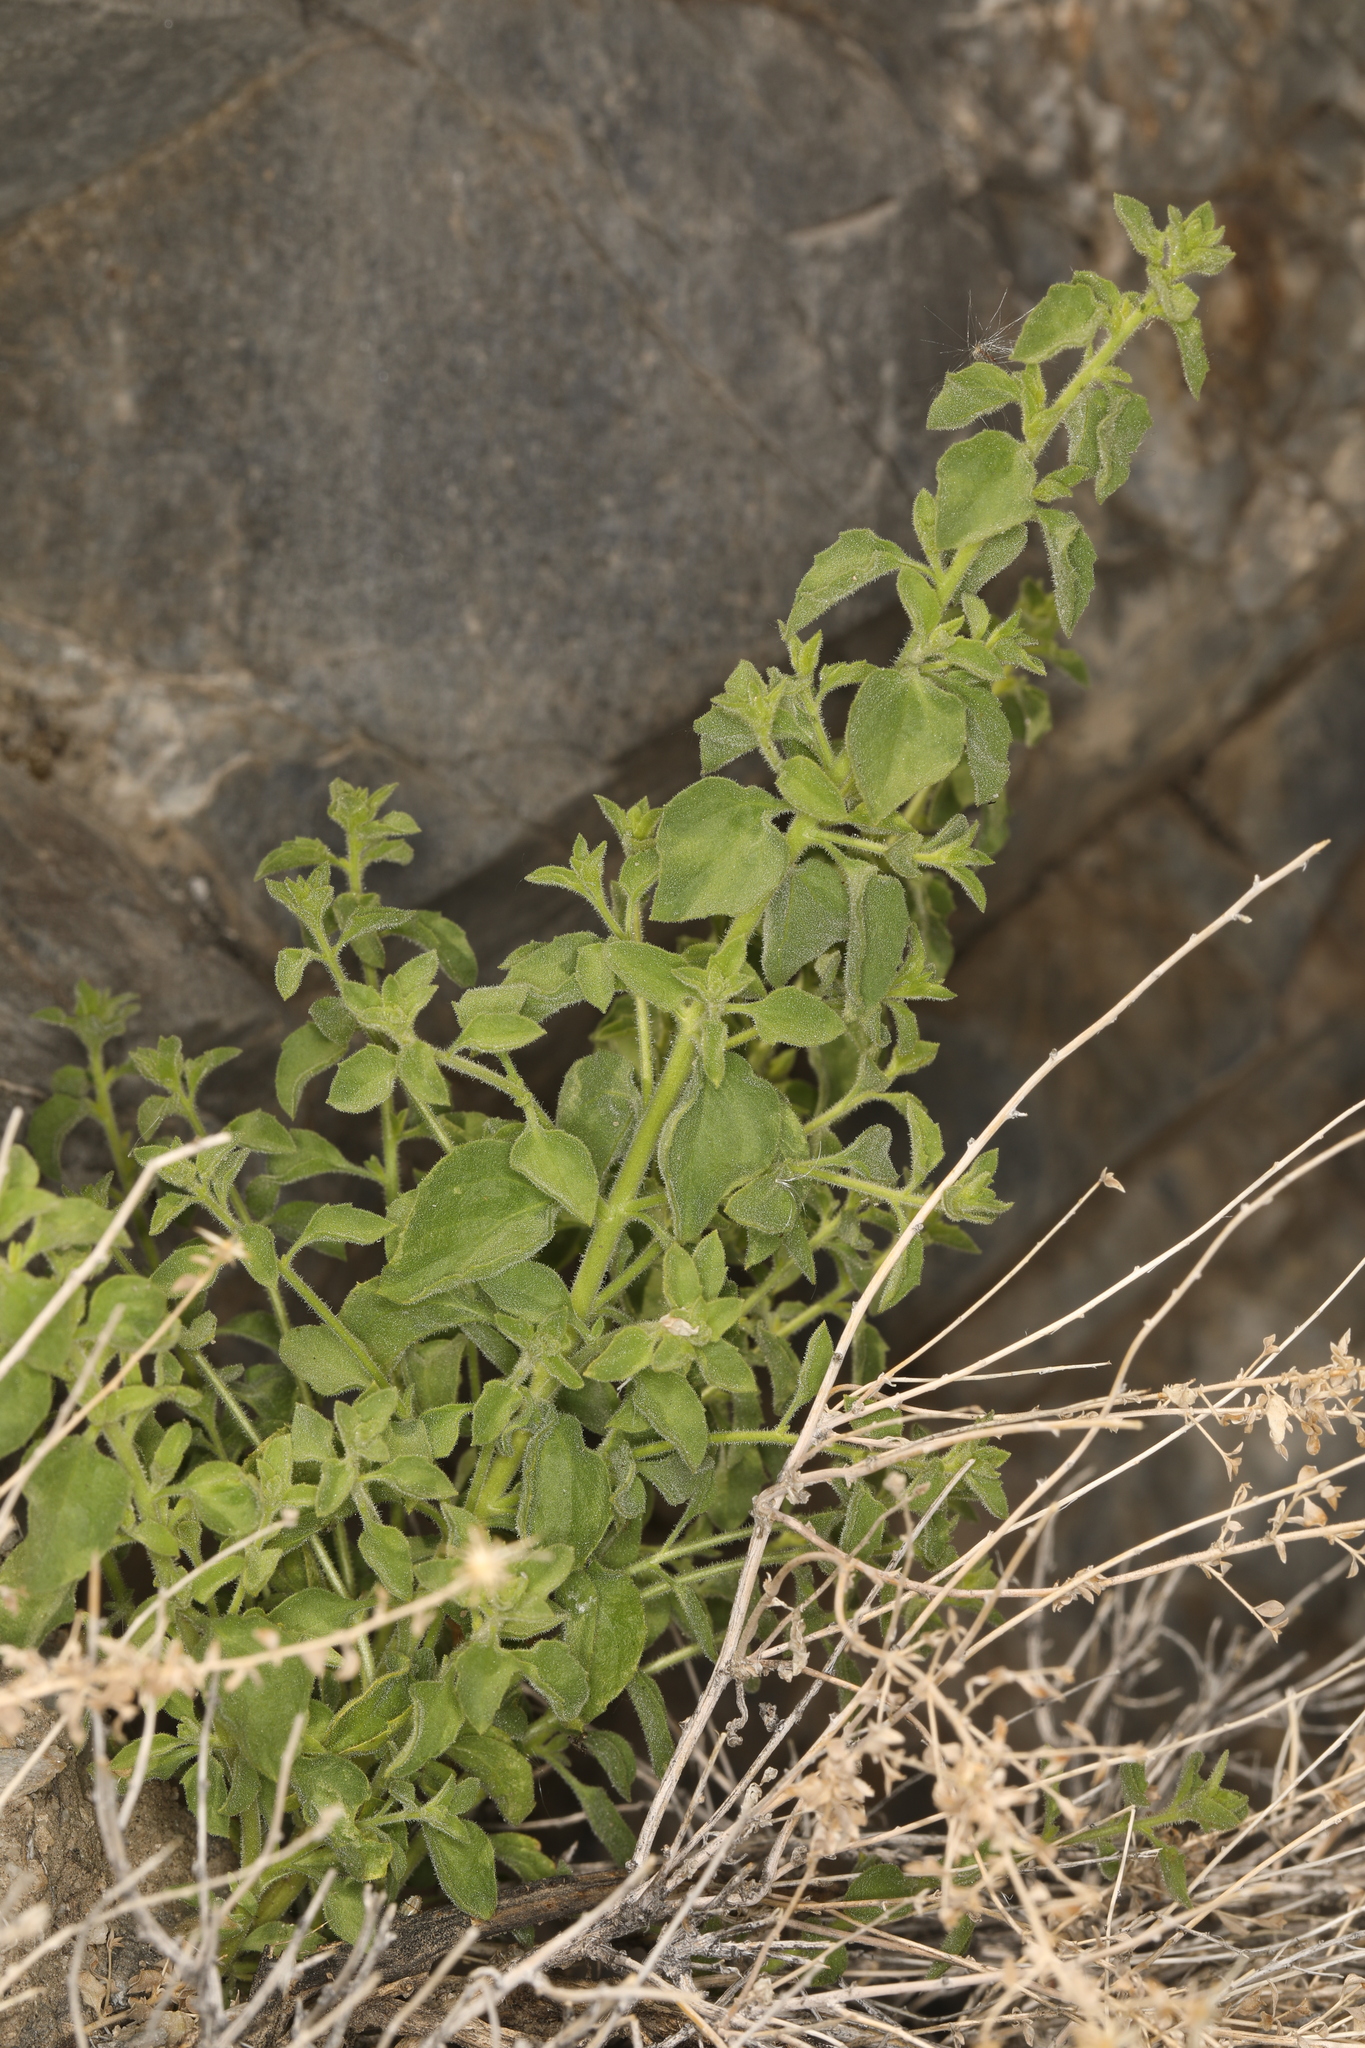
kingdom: Plantae
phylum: Tracheophyta
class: Magnoliopsida
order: Asterales
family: Asteraceae
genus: Brickellia
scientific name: Brickellia microphylla
